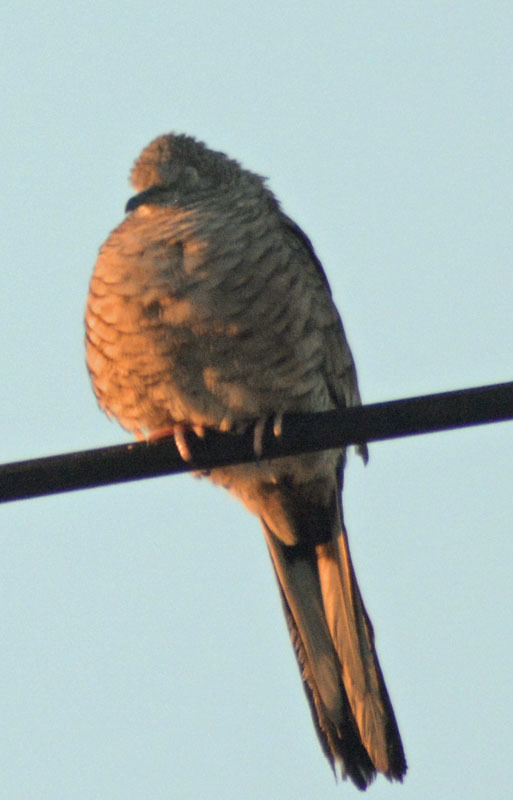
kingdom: Animalia
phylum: Chordata
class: Aves
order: Columbiformes
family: Columbidae
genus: Columbina
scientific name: Columbina inca
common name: Inca dove
